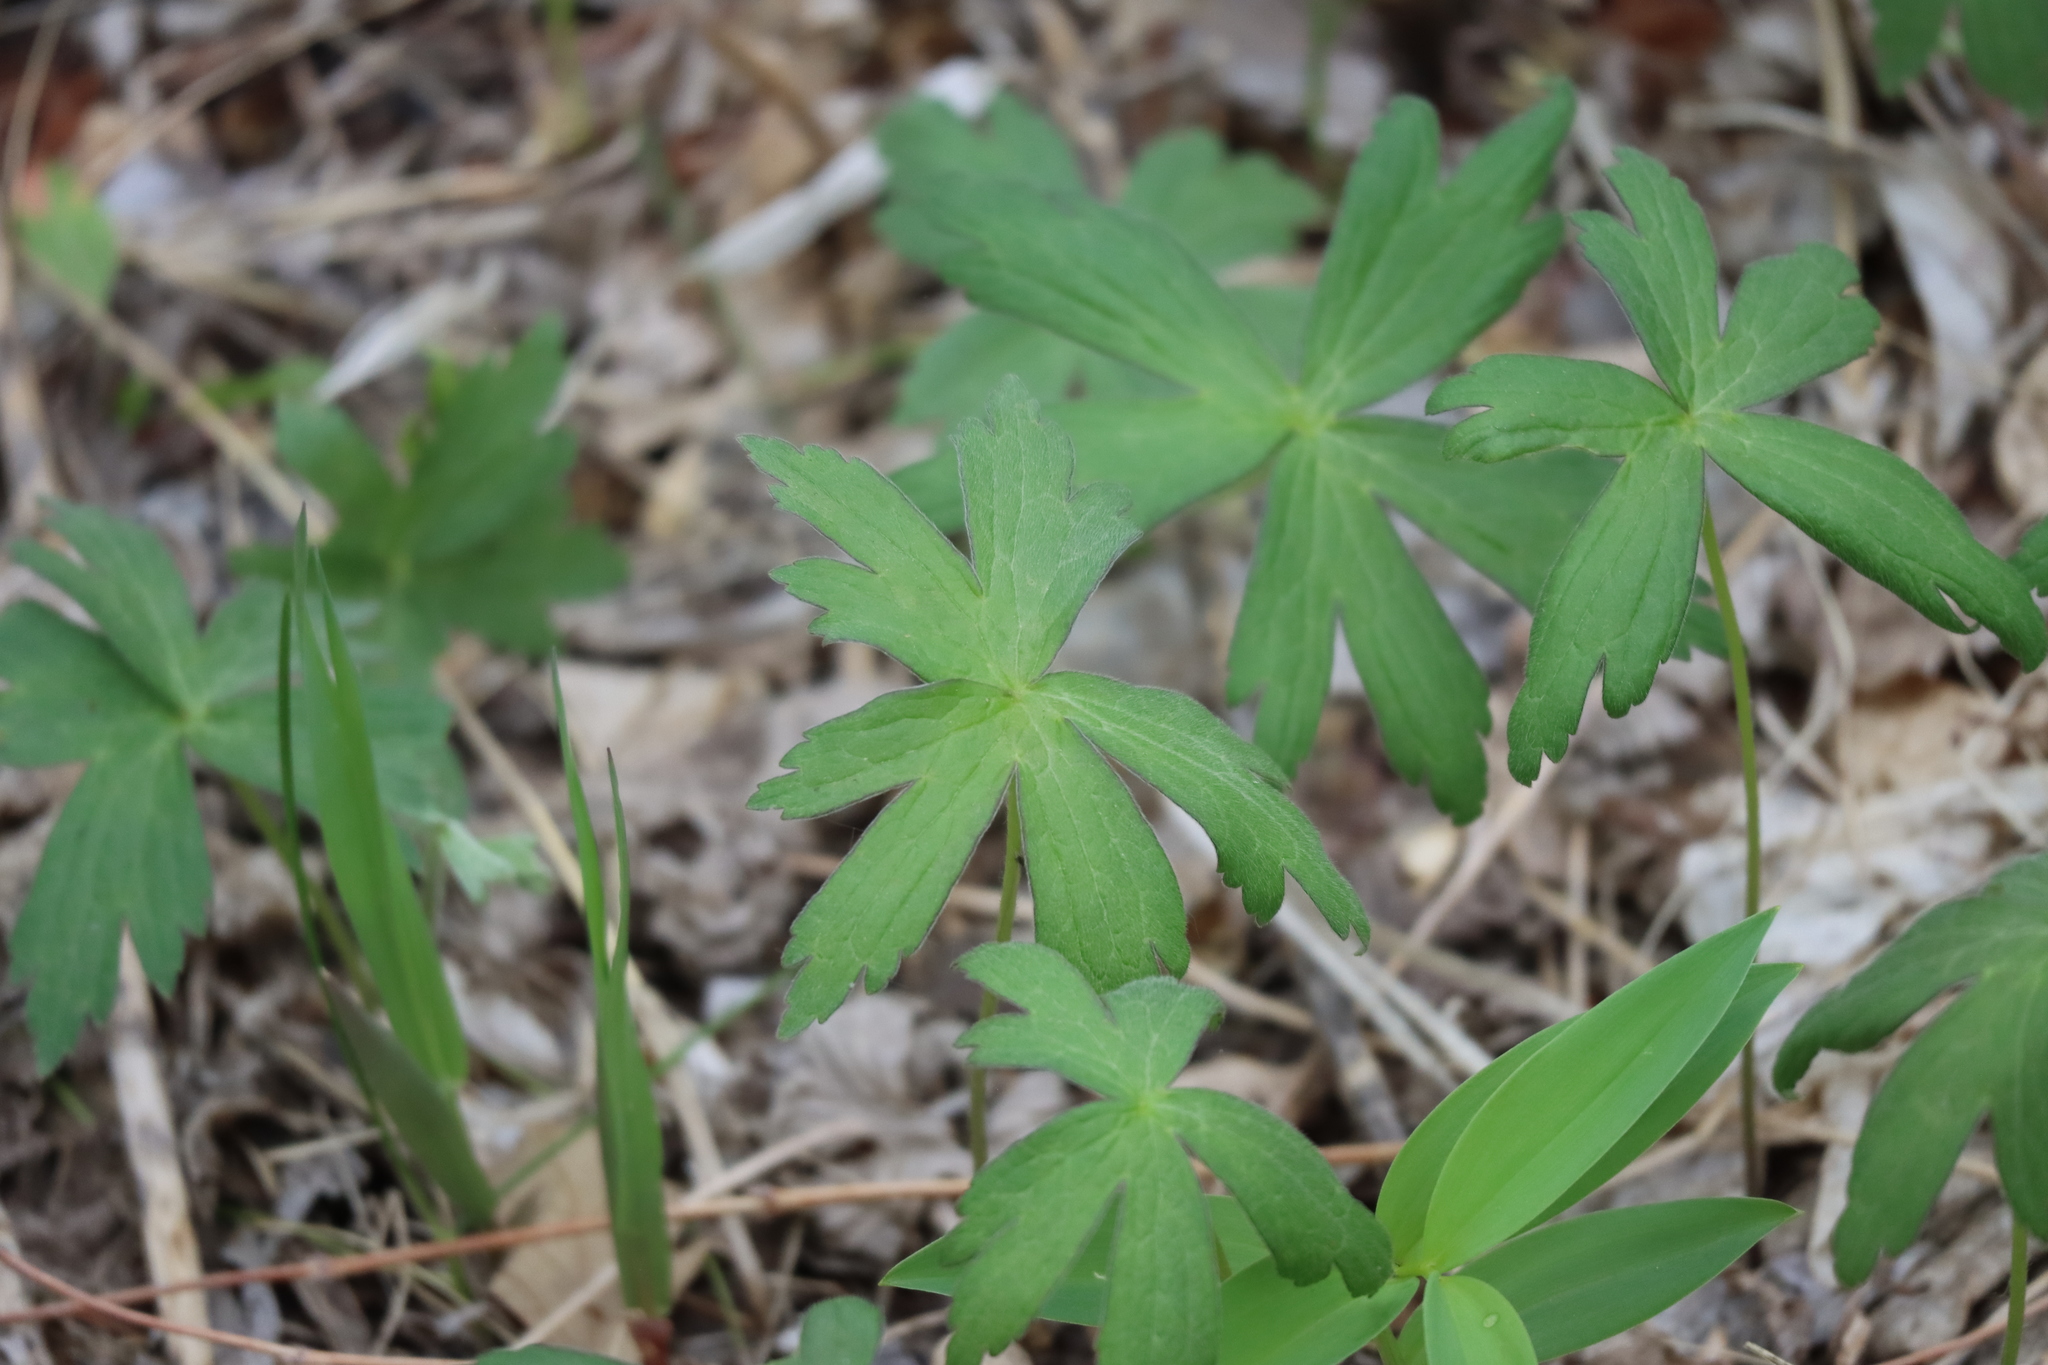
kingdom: Plantae
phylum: Tracheophyta
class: Magnoliopsida
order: Ranunculales
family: Ranunculaceae
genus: Anemonastrum
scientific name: Anemonastrum canadense
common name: Canada anemone
